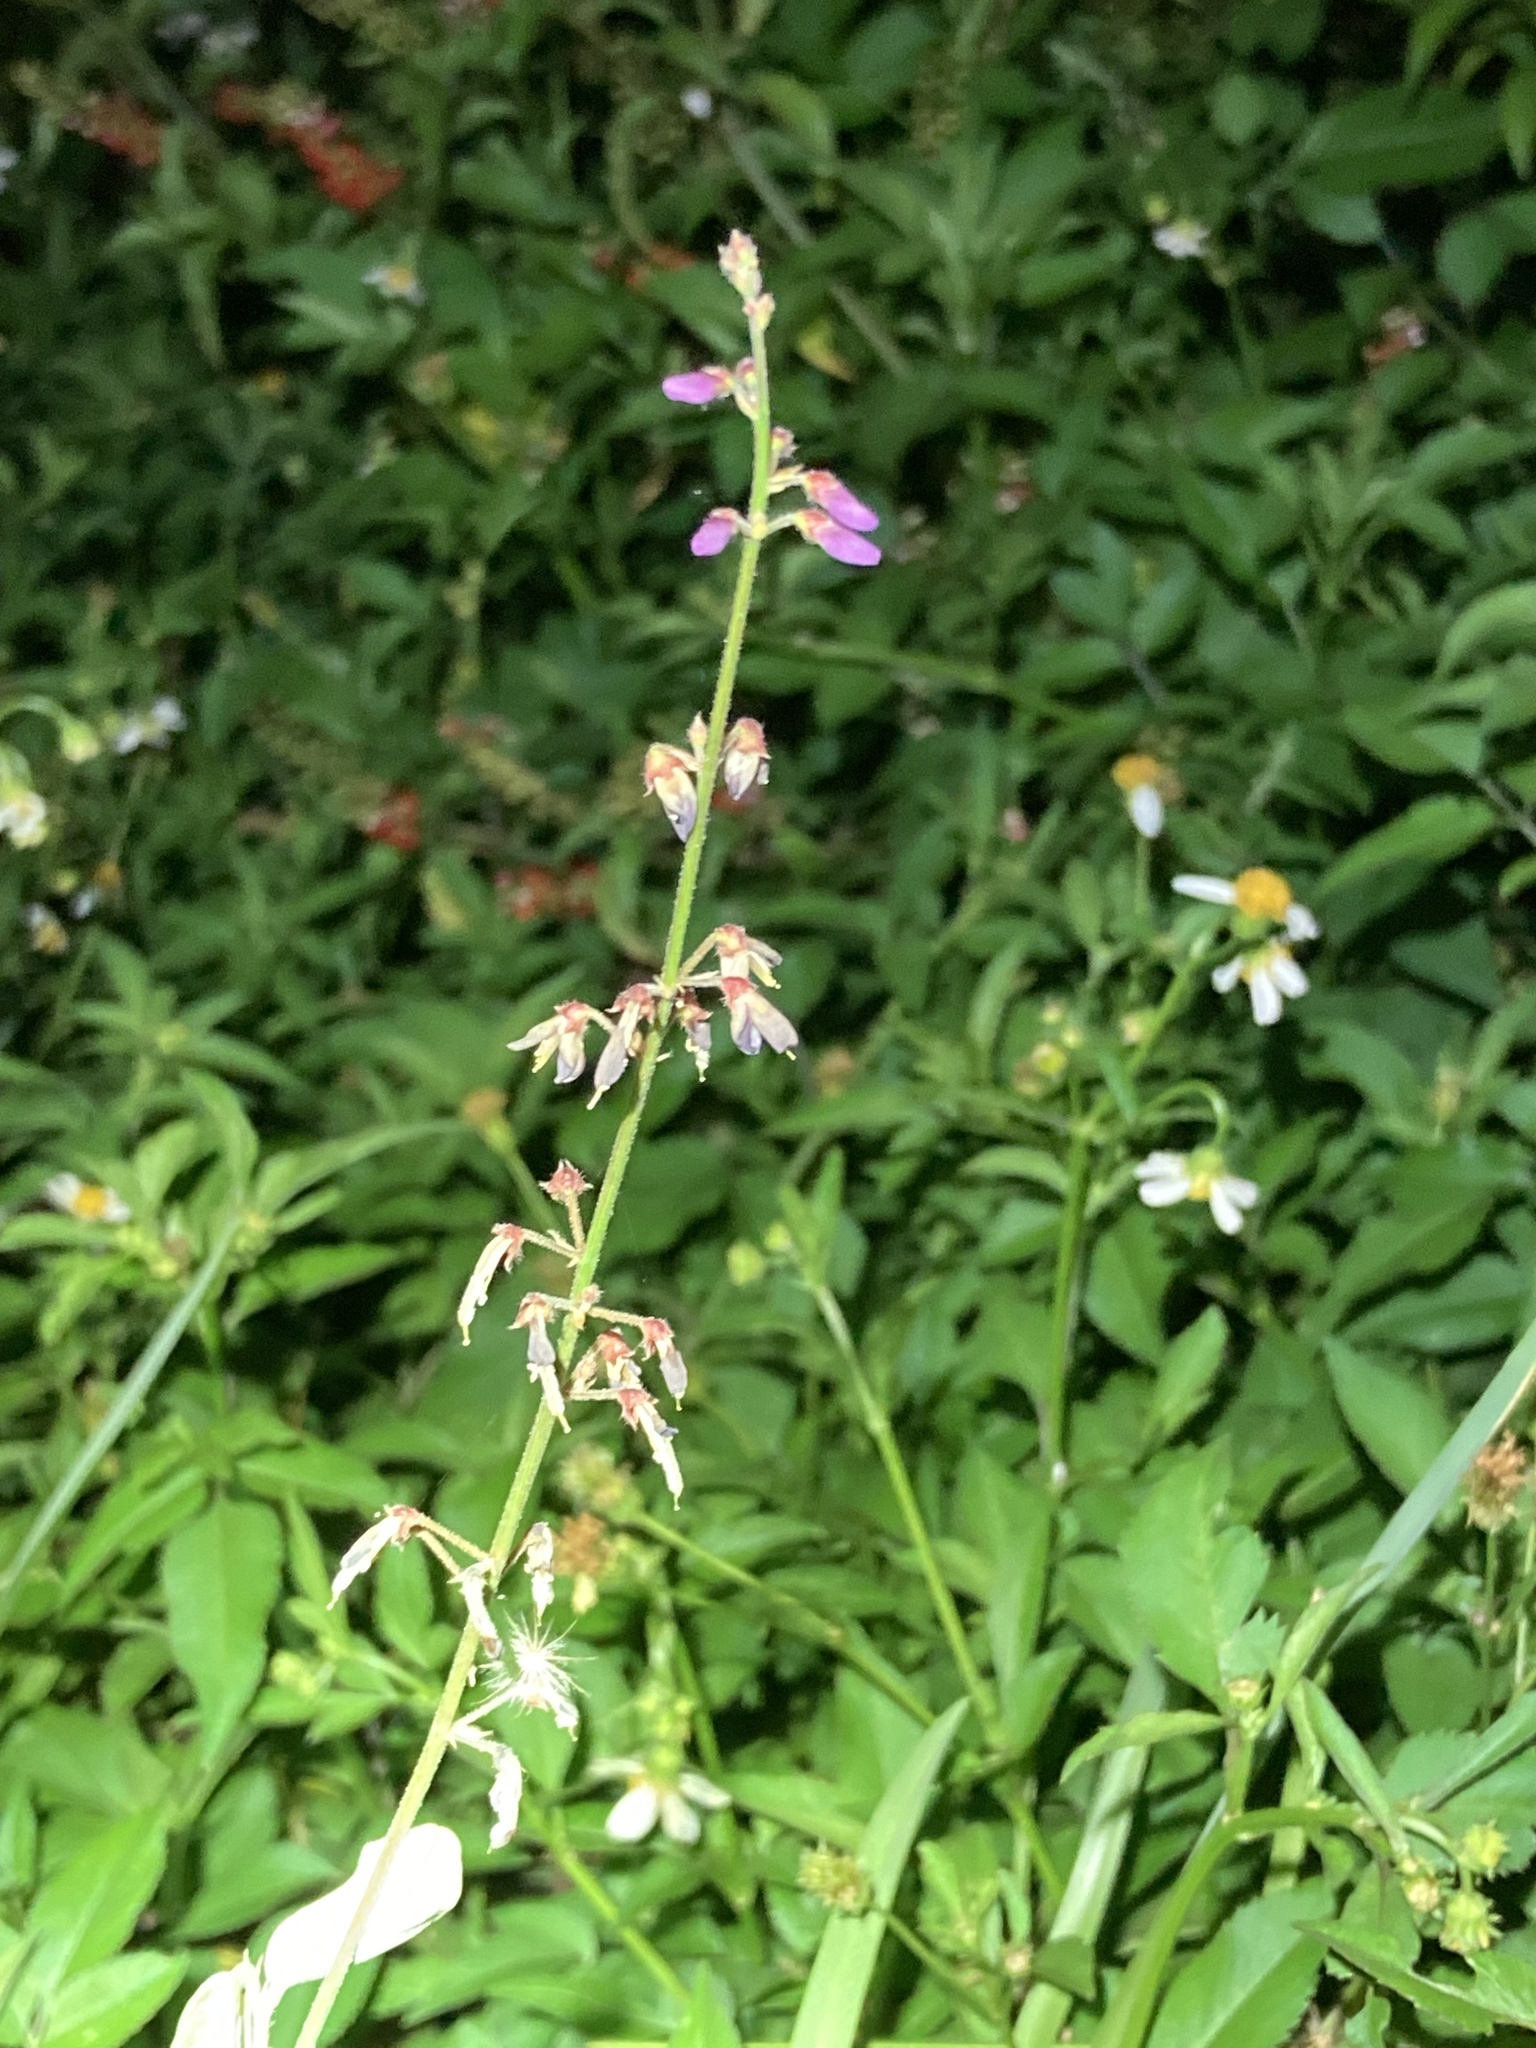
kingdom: Plantae
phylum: Tracheophyta
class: Magnoliopsida
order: Fabales
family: Fabaceae
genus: Desmodium
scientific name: Desmodium incanum
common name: Tickclover
